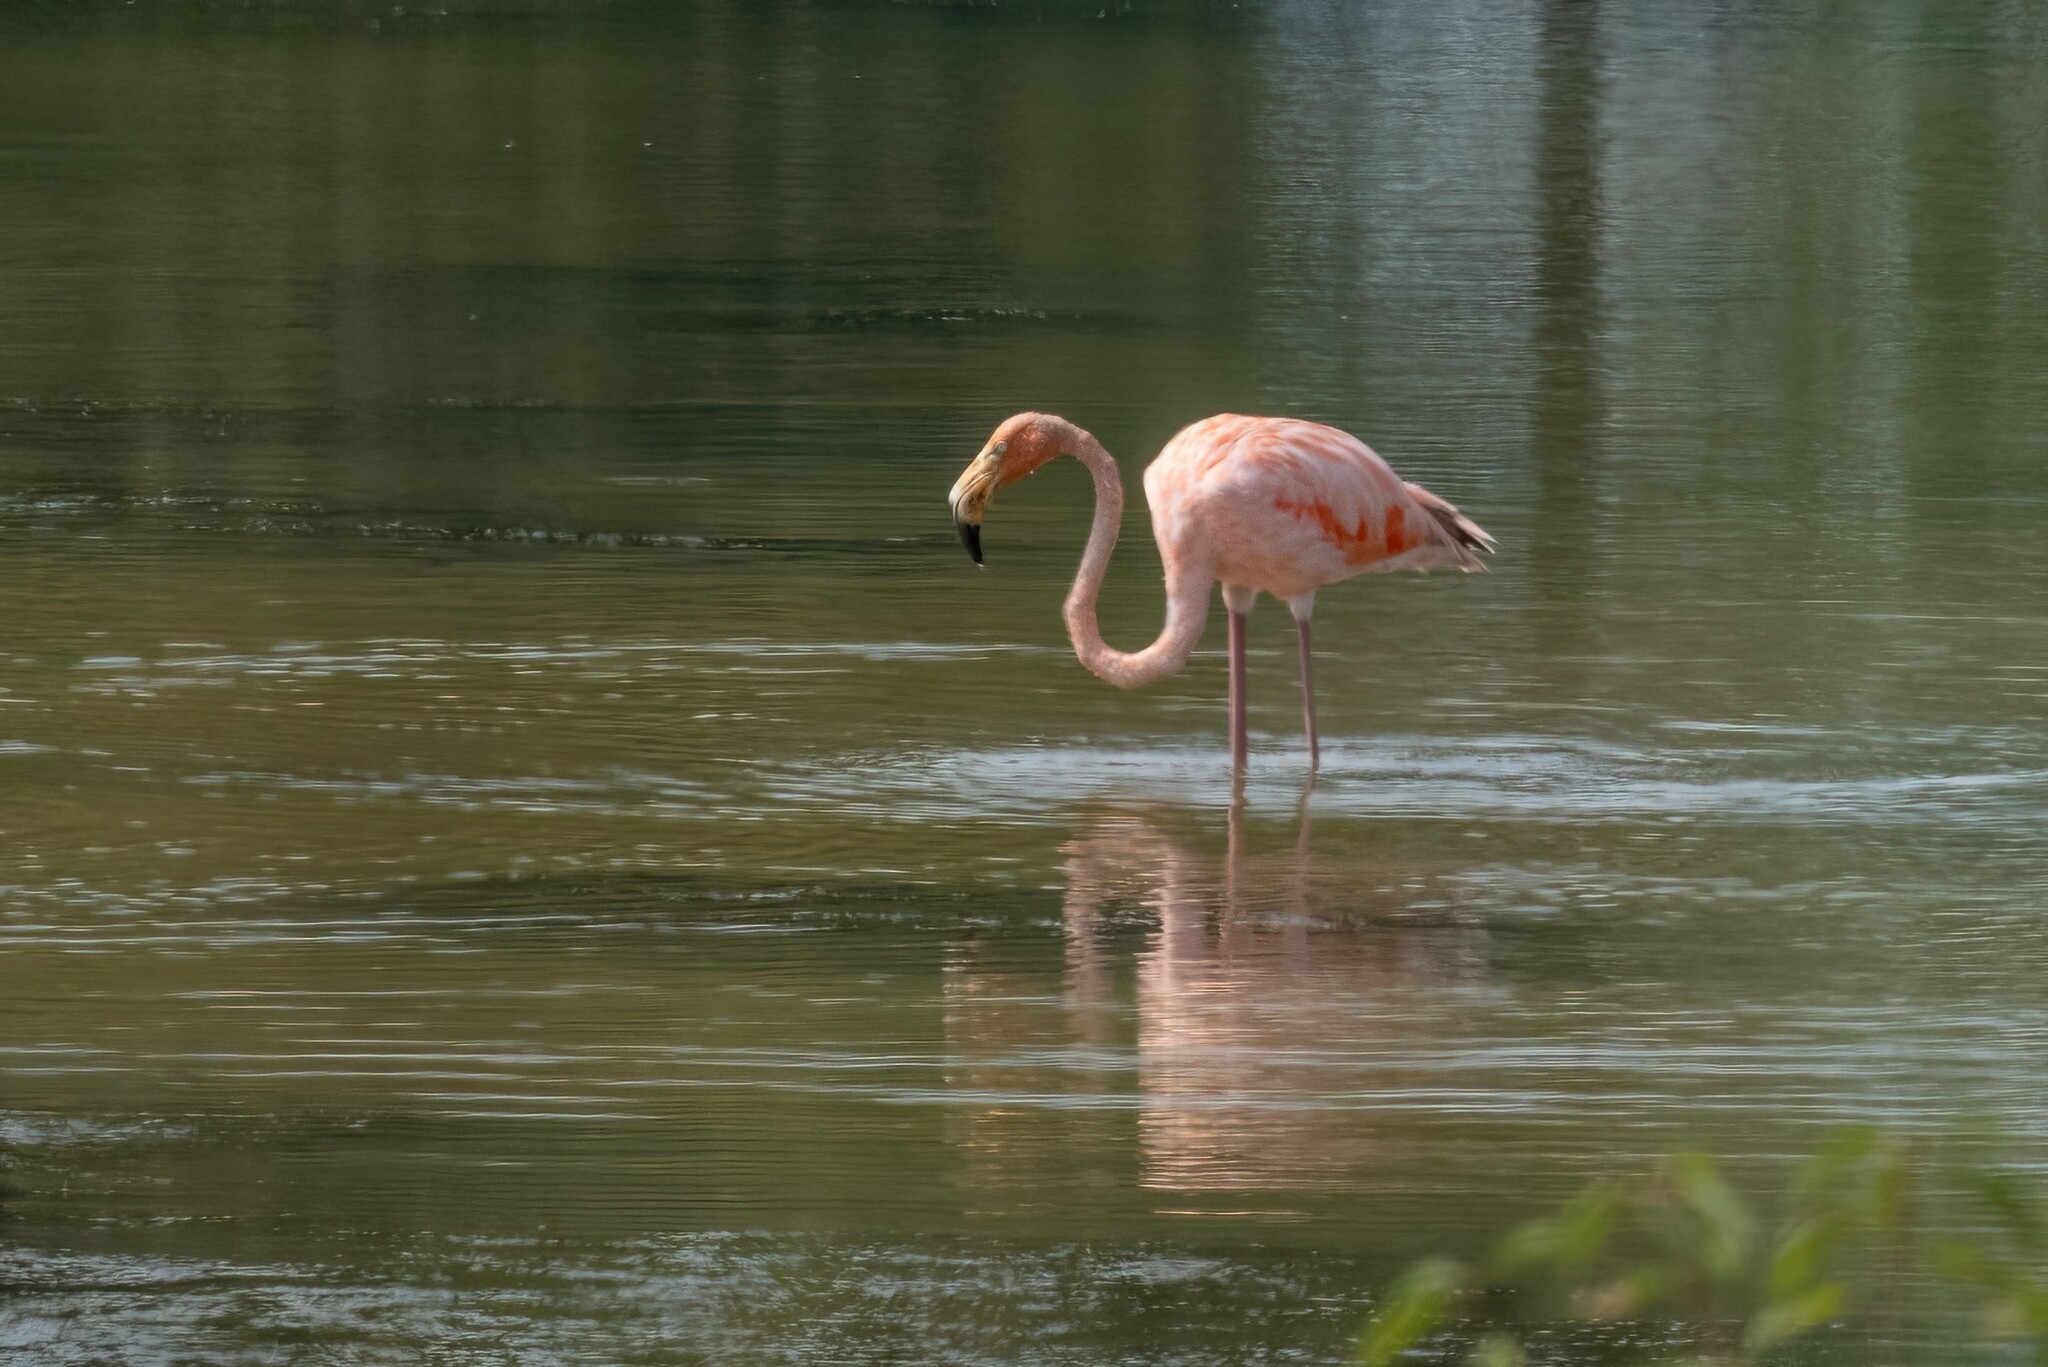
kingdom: Animalia
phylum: Chordata
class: Aves
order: Phoenicopteriformes
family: Phoenicopteridae
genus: Phoenicopterus
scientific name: Phoenicopterus ruber
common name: American flamingo
